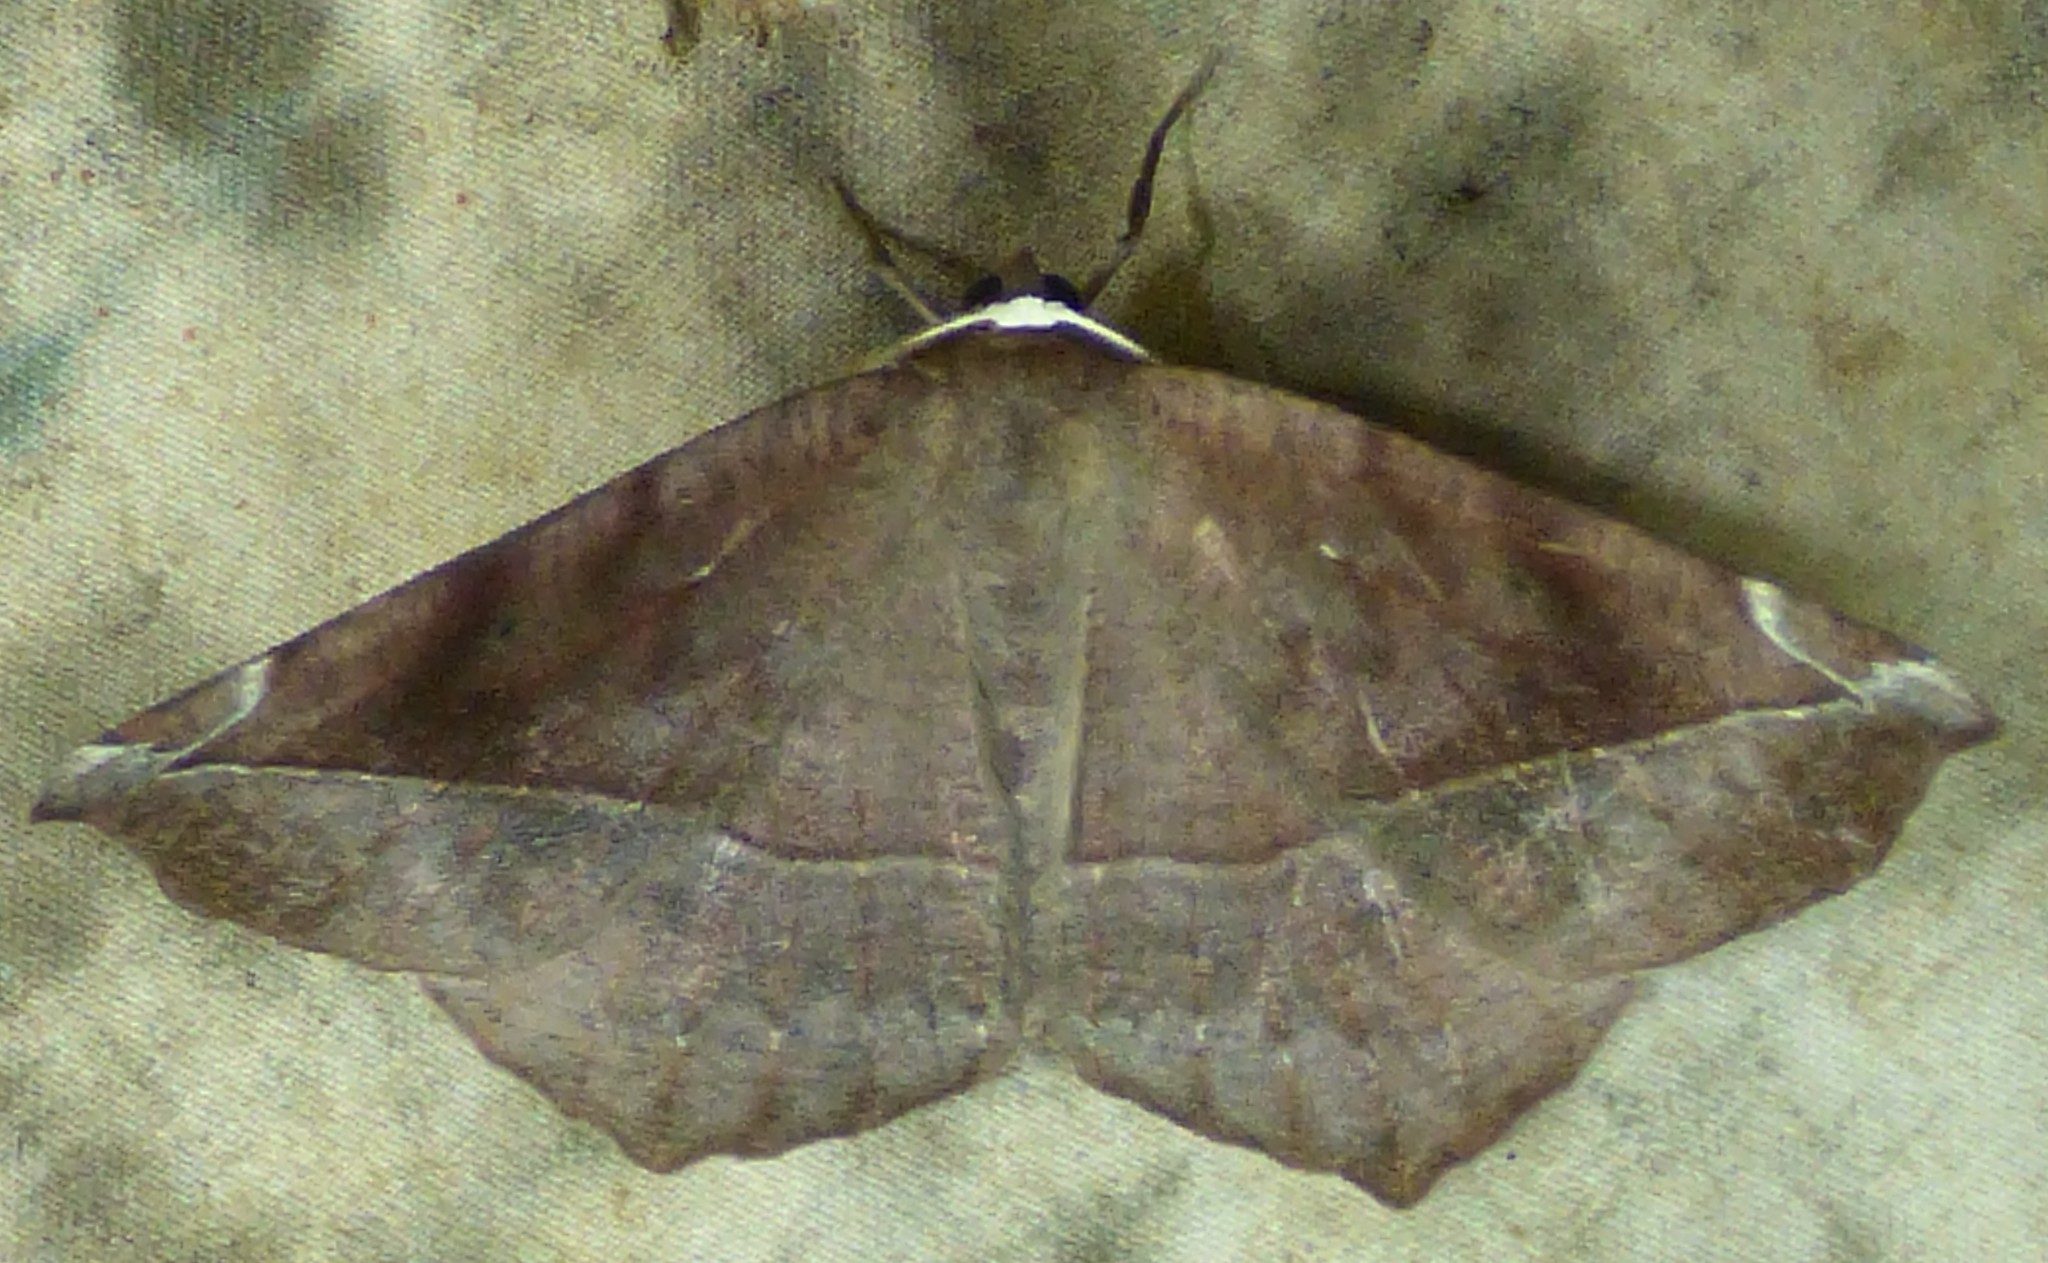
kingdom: Animalia
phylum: Arthropoda
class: Insecta
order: Lepidoptera
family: Geometridae
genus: Eutrapela
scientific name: Eutrapela clemataria
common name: Curved-toothed geometer
